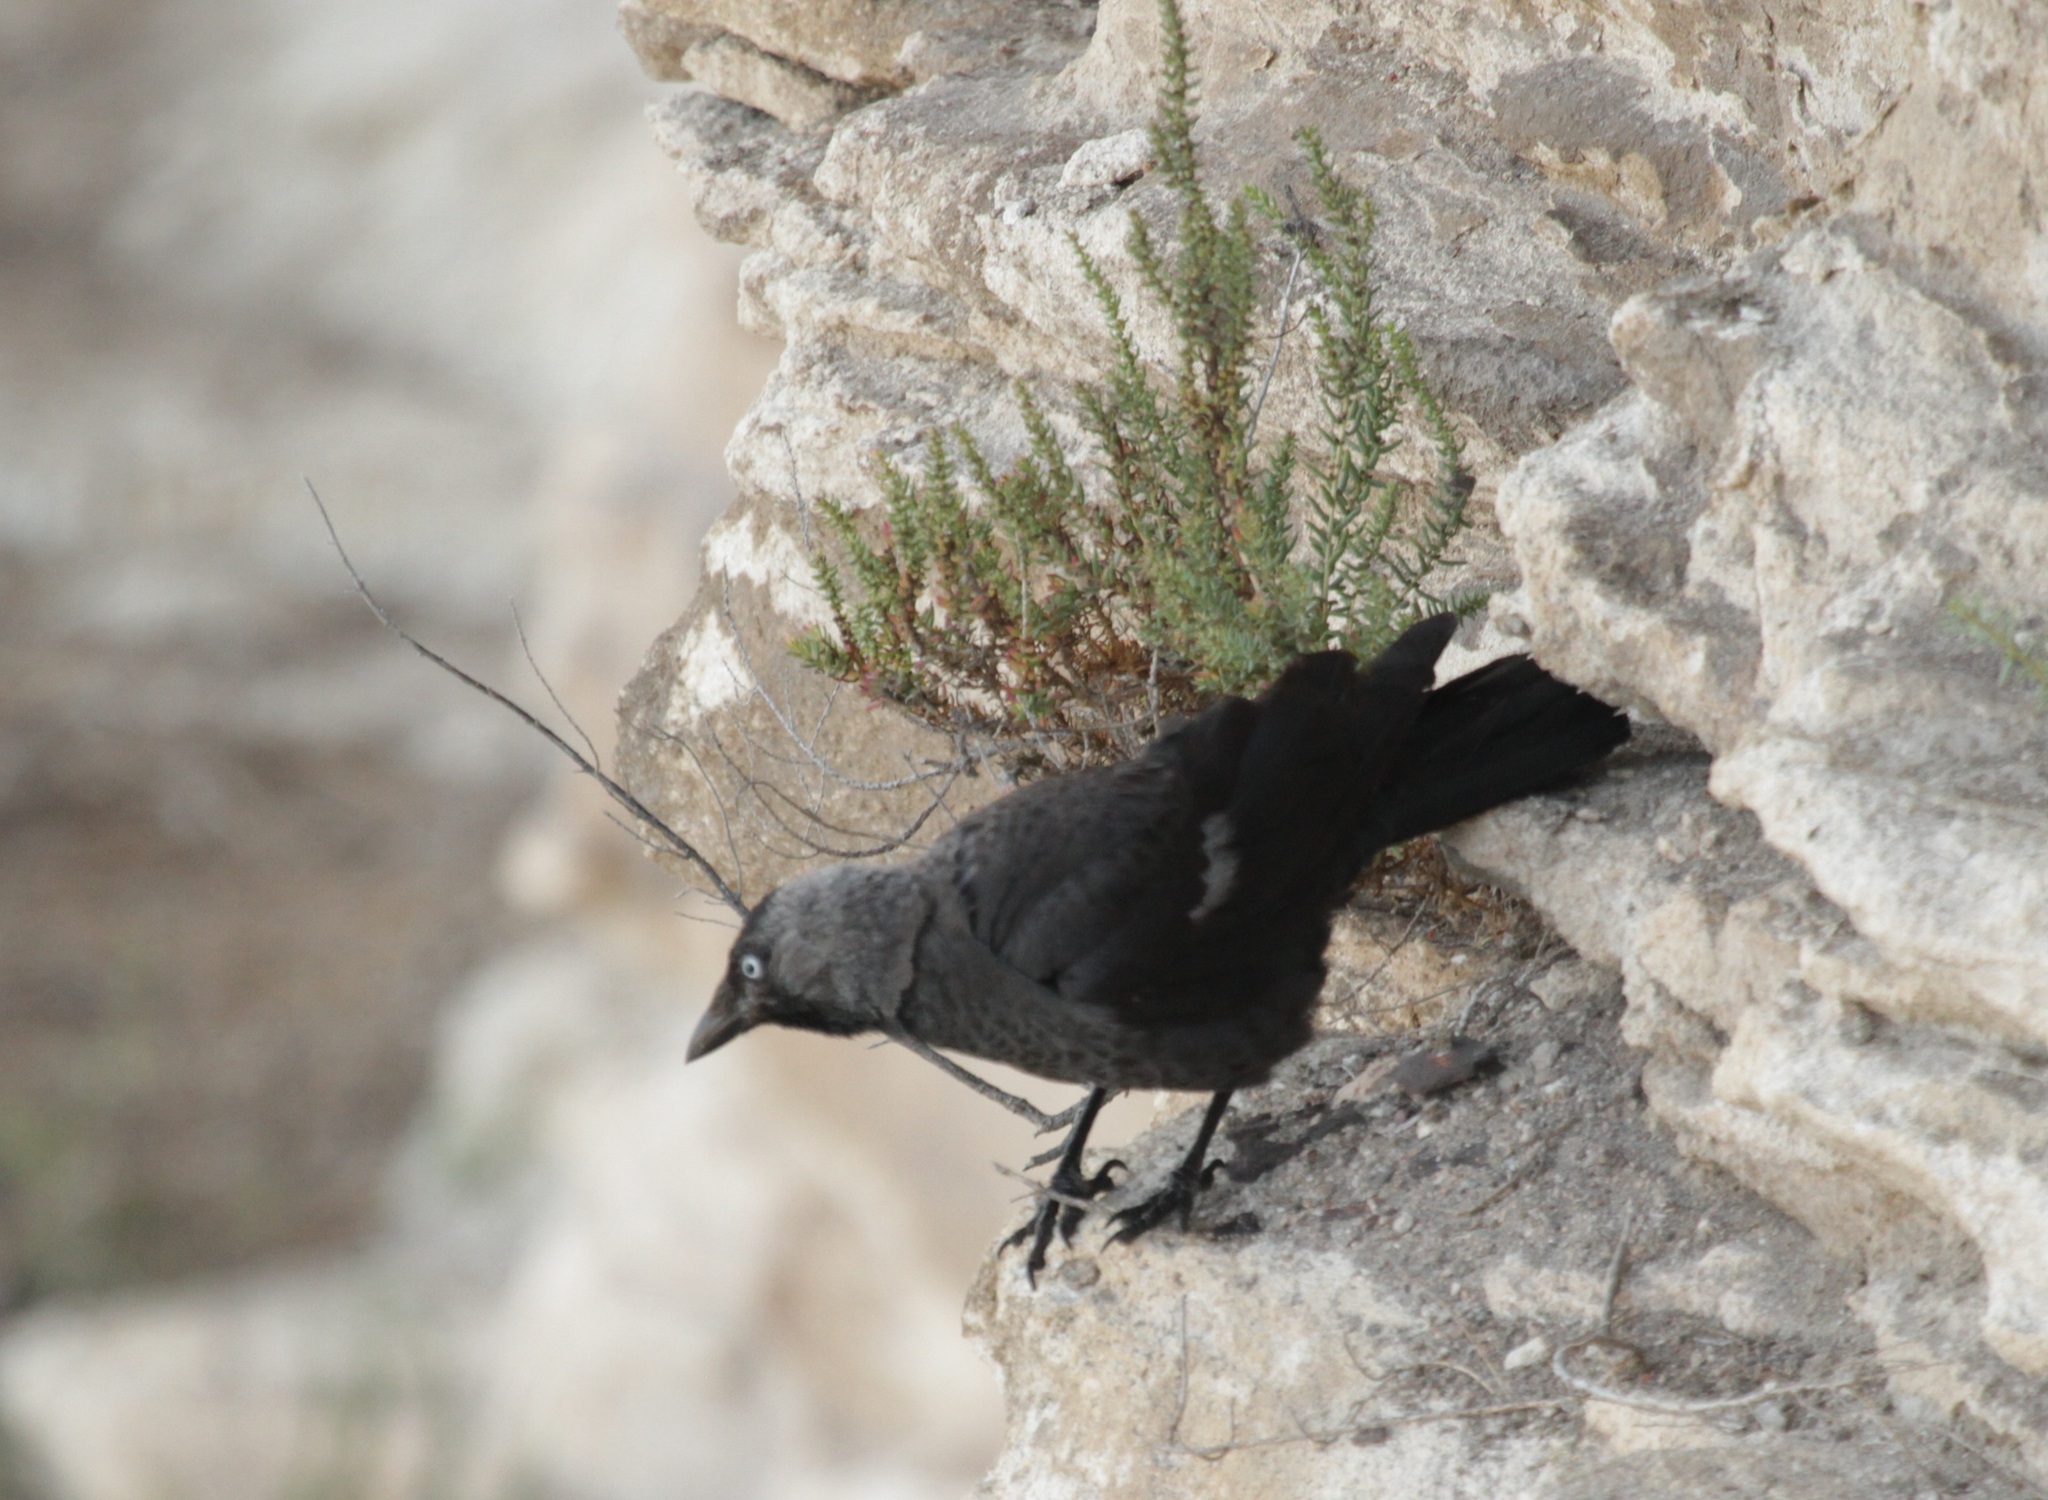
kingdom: Animalia
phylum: Chordata
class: Aves
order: Passeriformes
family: Corvidae
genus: Coloeus
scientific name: Coloeus monedula
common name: Western jackdaw
